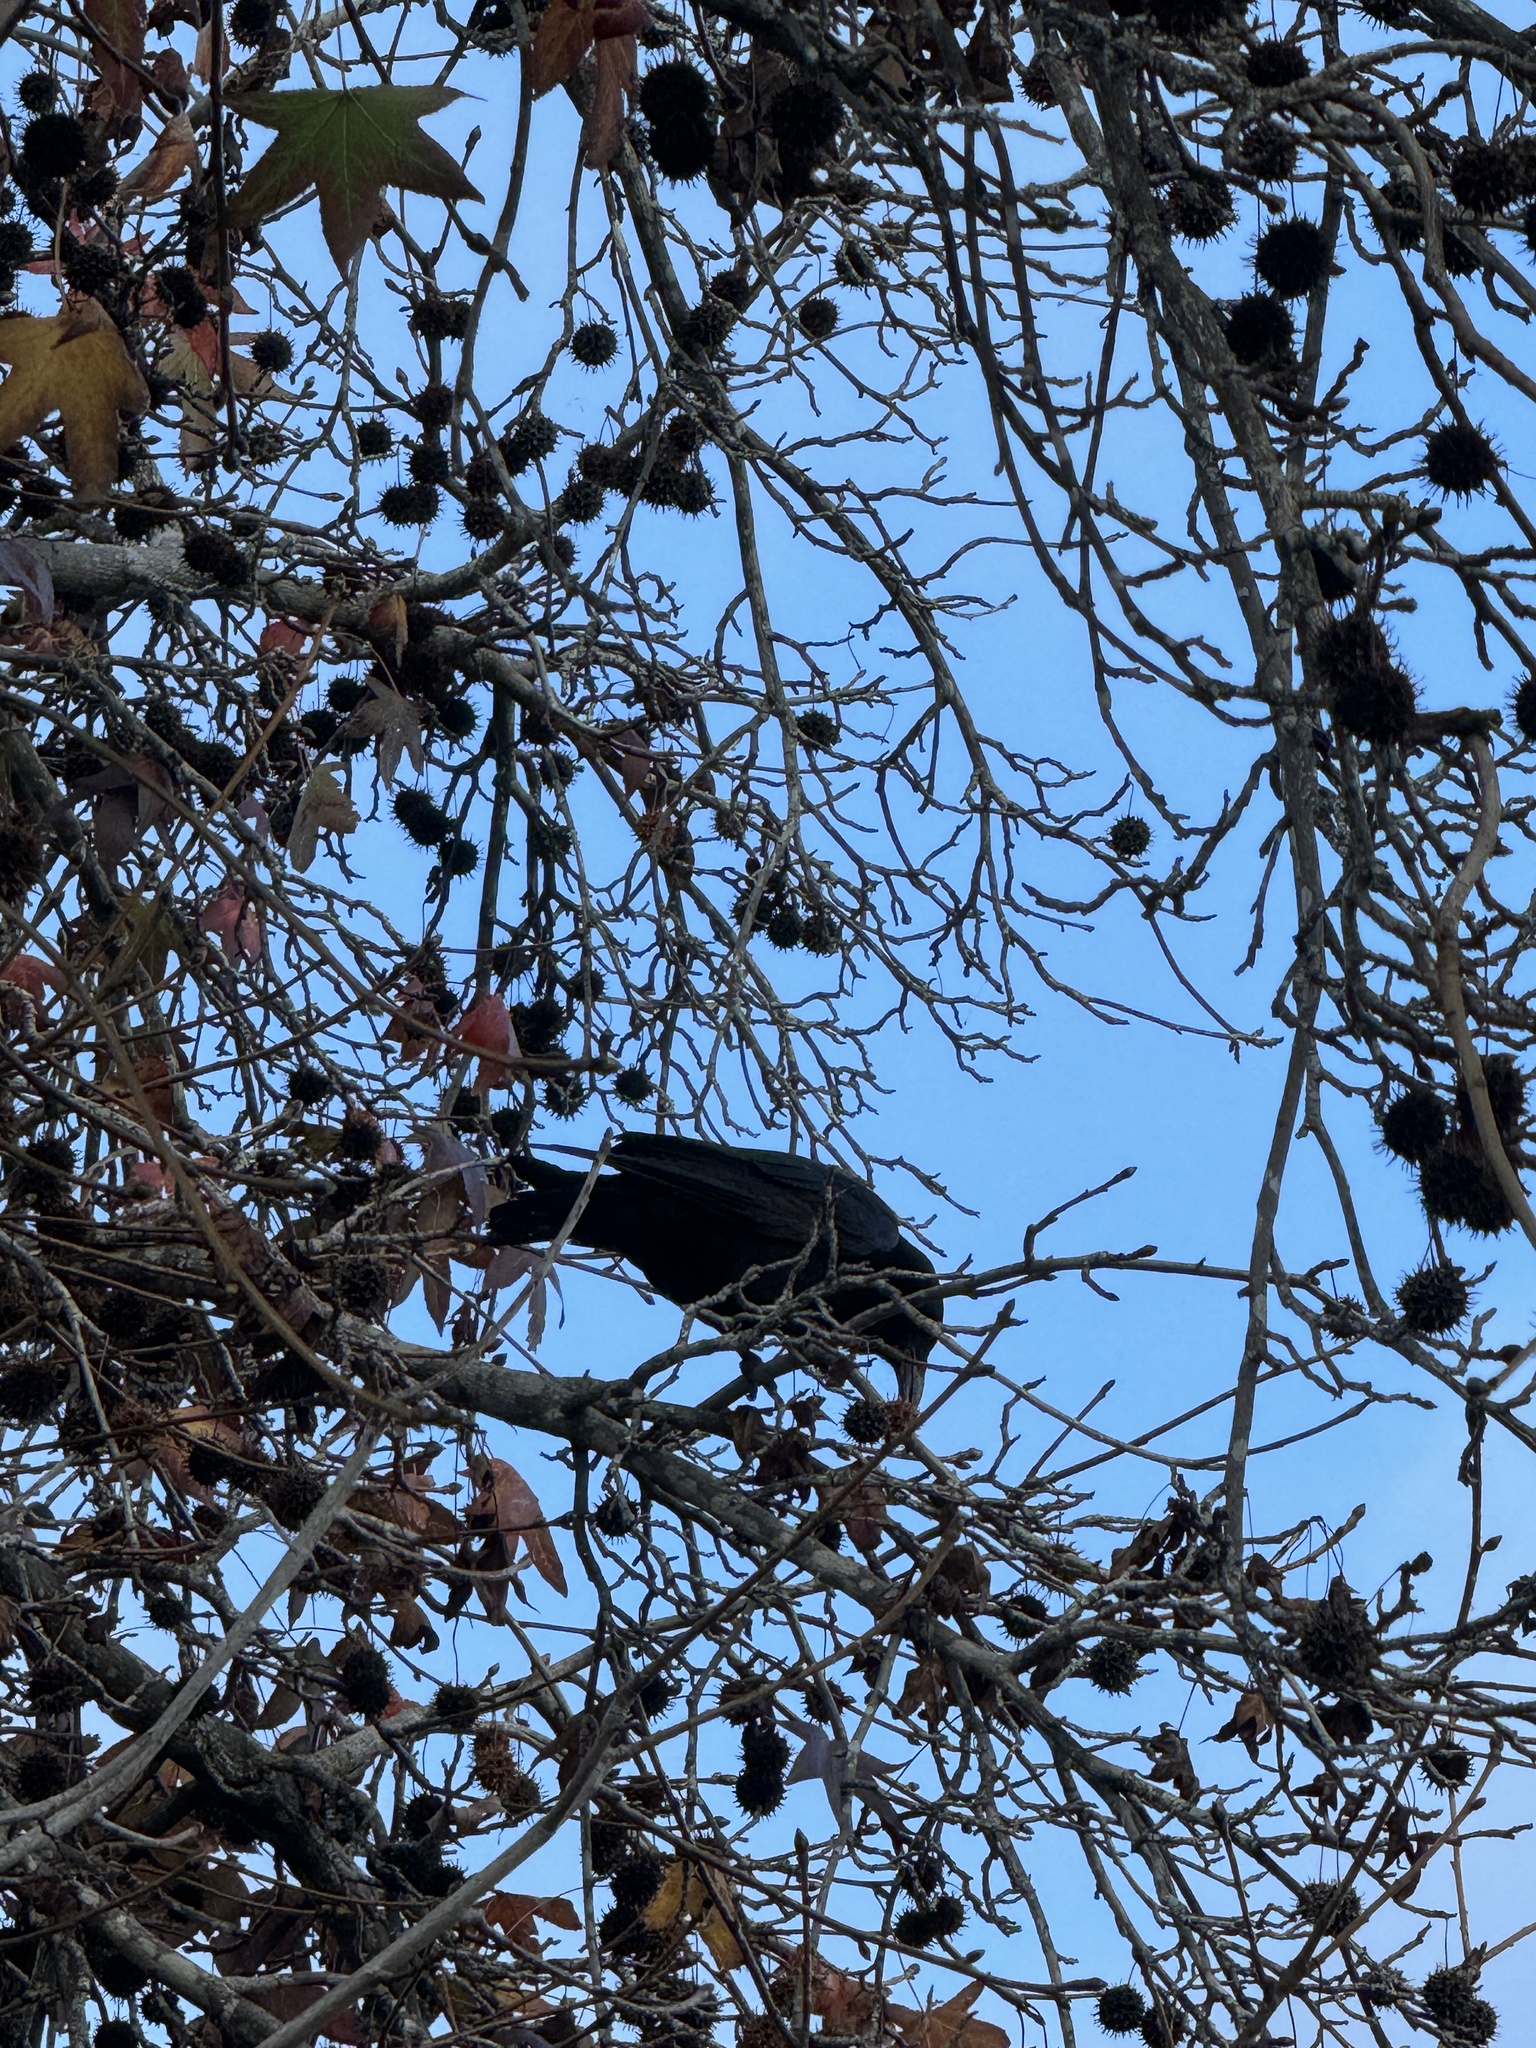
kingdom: Animalia
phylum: Chordata
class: Aves
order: Passeriformes
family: Corvidae
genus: Corvus
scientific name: Corvus brachyrhynchos
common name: American crow
